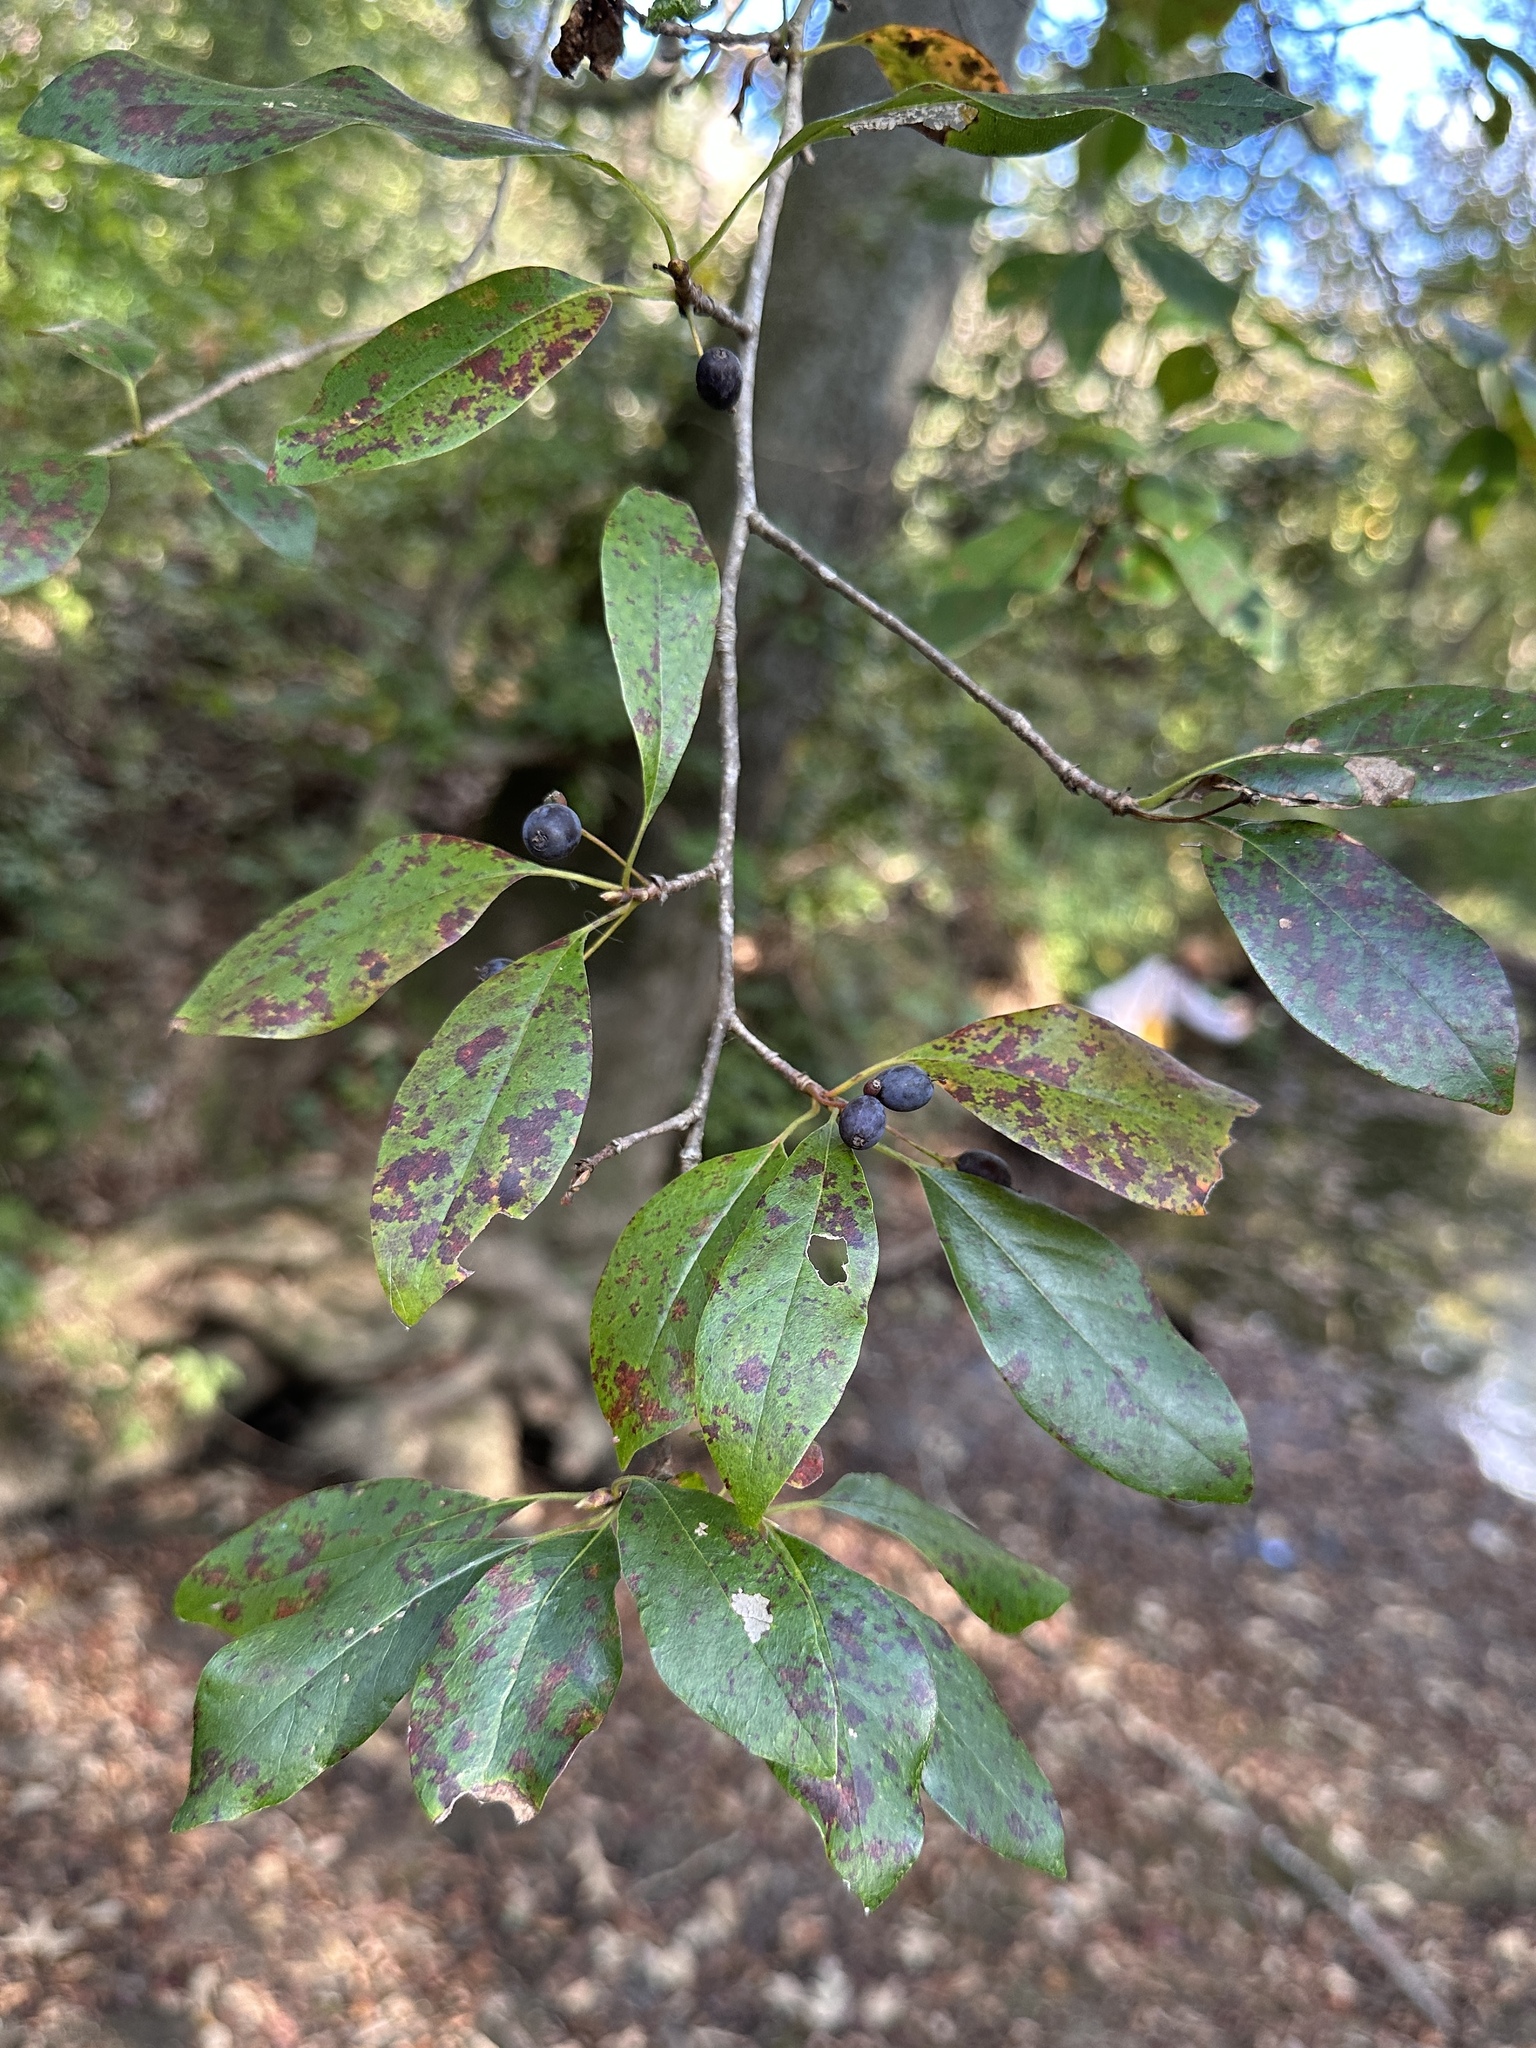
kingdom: Plantae
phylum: Tracheophyta
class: Magnoliopsida
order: Cornales
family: Nyssaceae
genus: Nyssa
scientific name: Nyssa sylvatica
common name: Black tupelo
